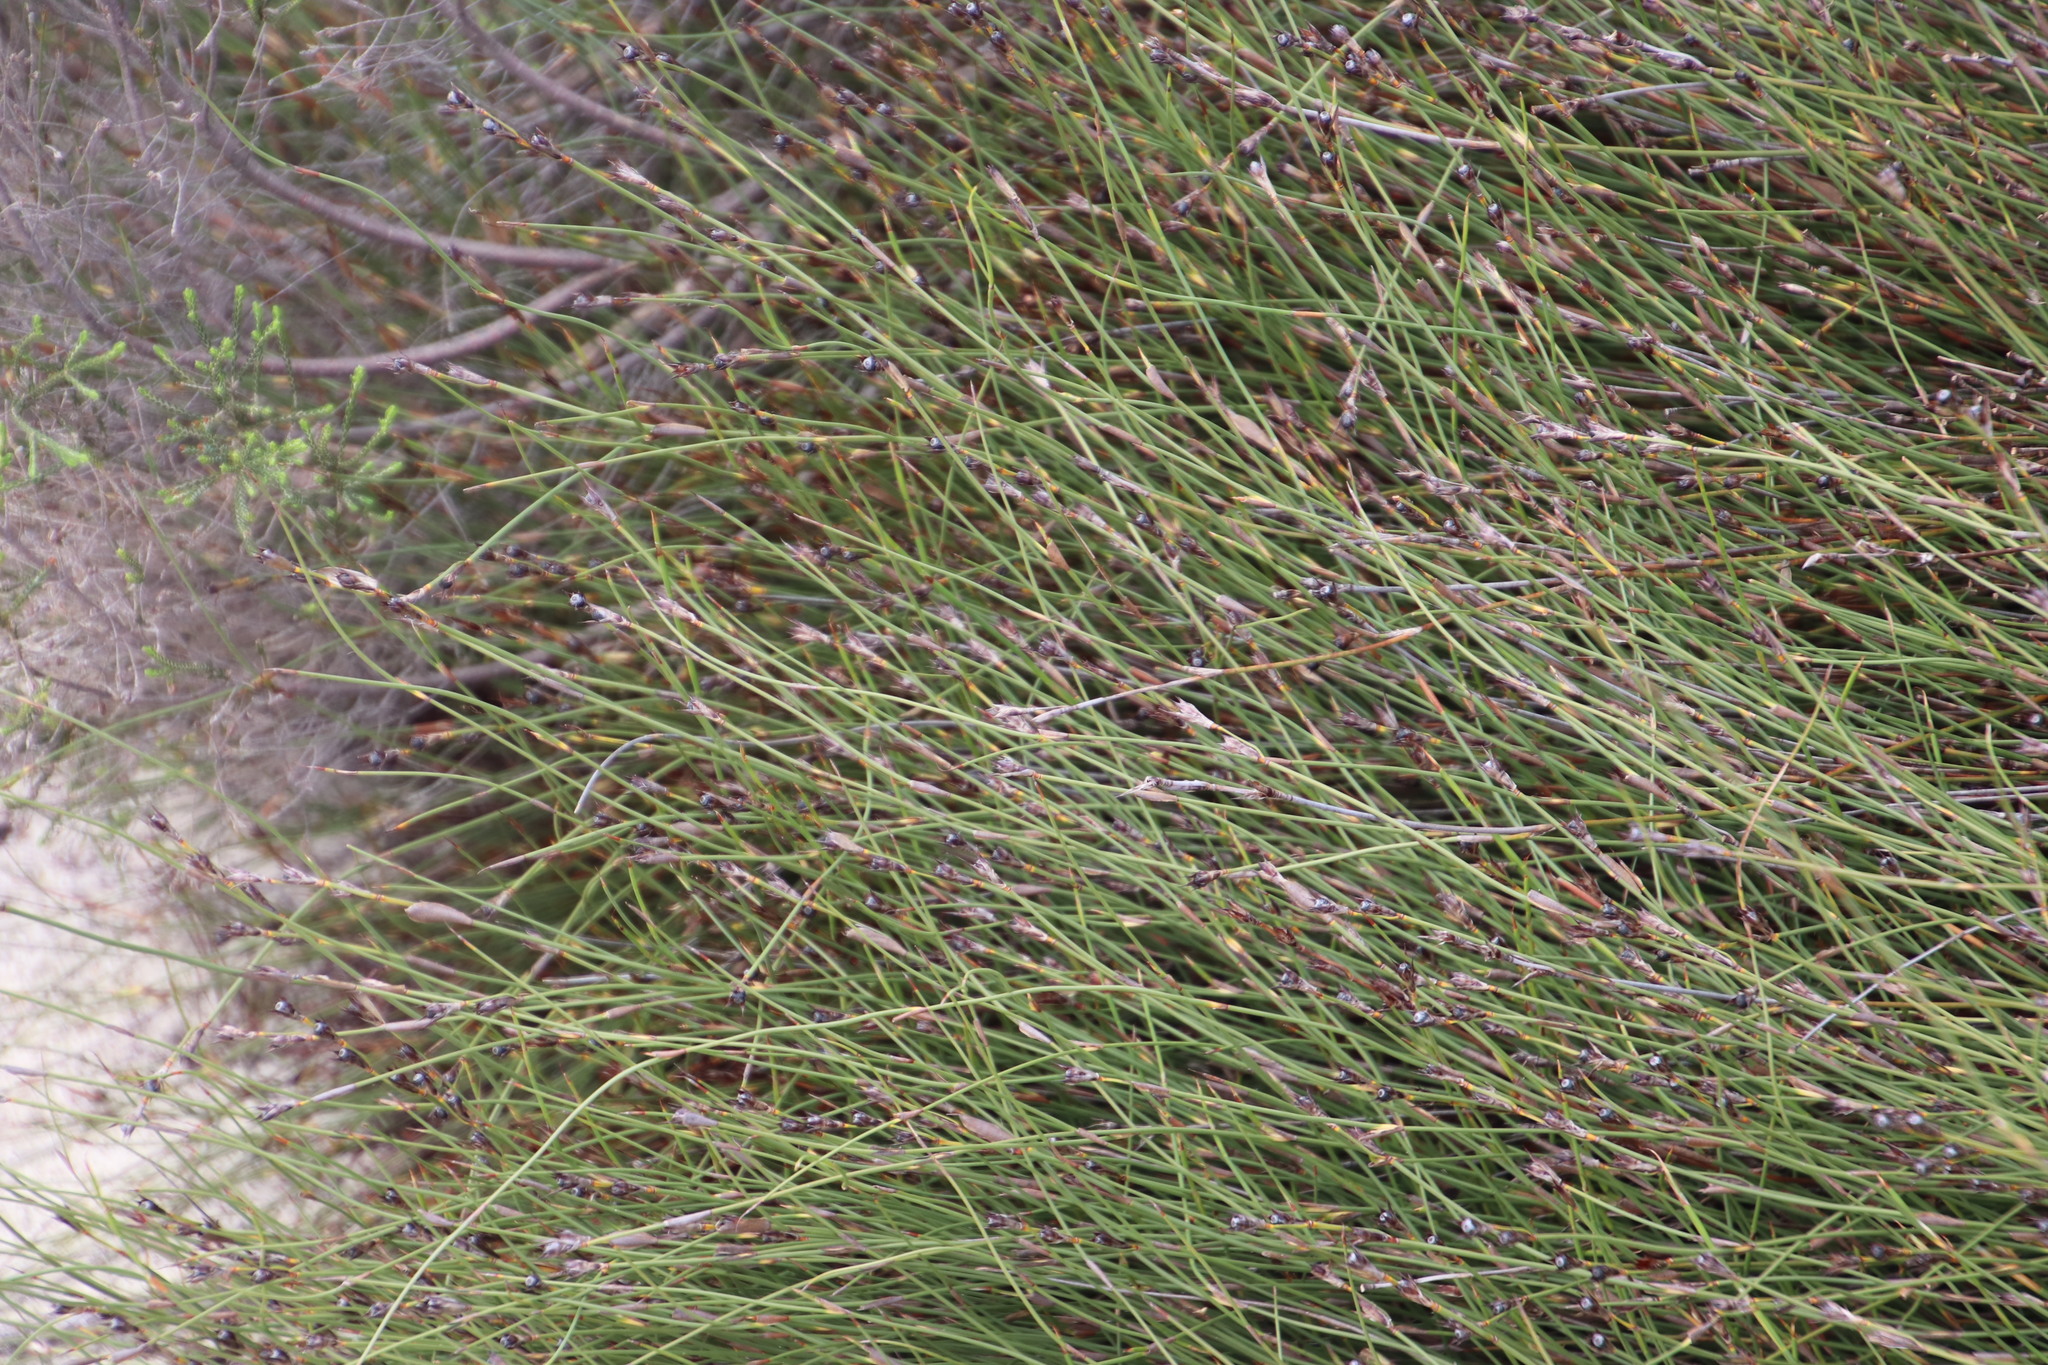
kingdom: Plantae
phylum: Tracheophyta
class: Liliopsida
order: Poales
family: Restionaceae
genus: Willdenowia
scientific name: Willdenowia incurvata
